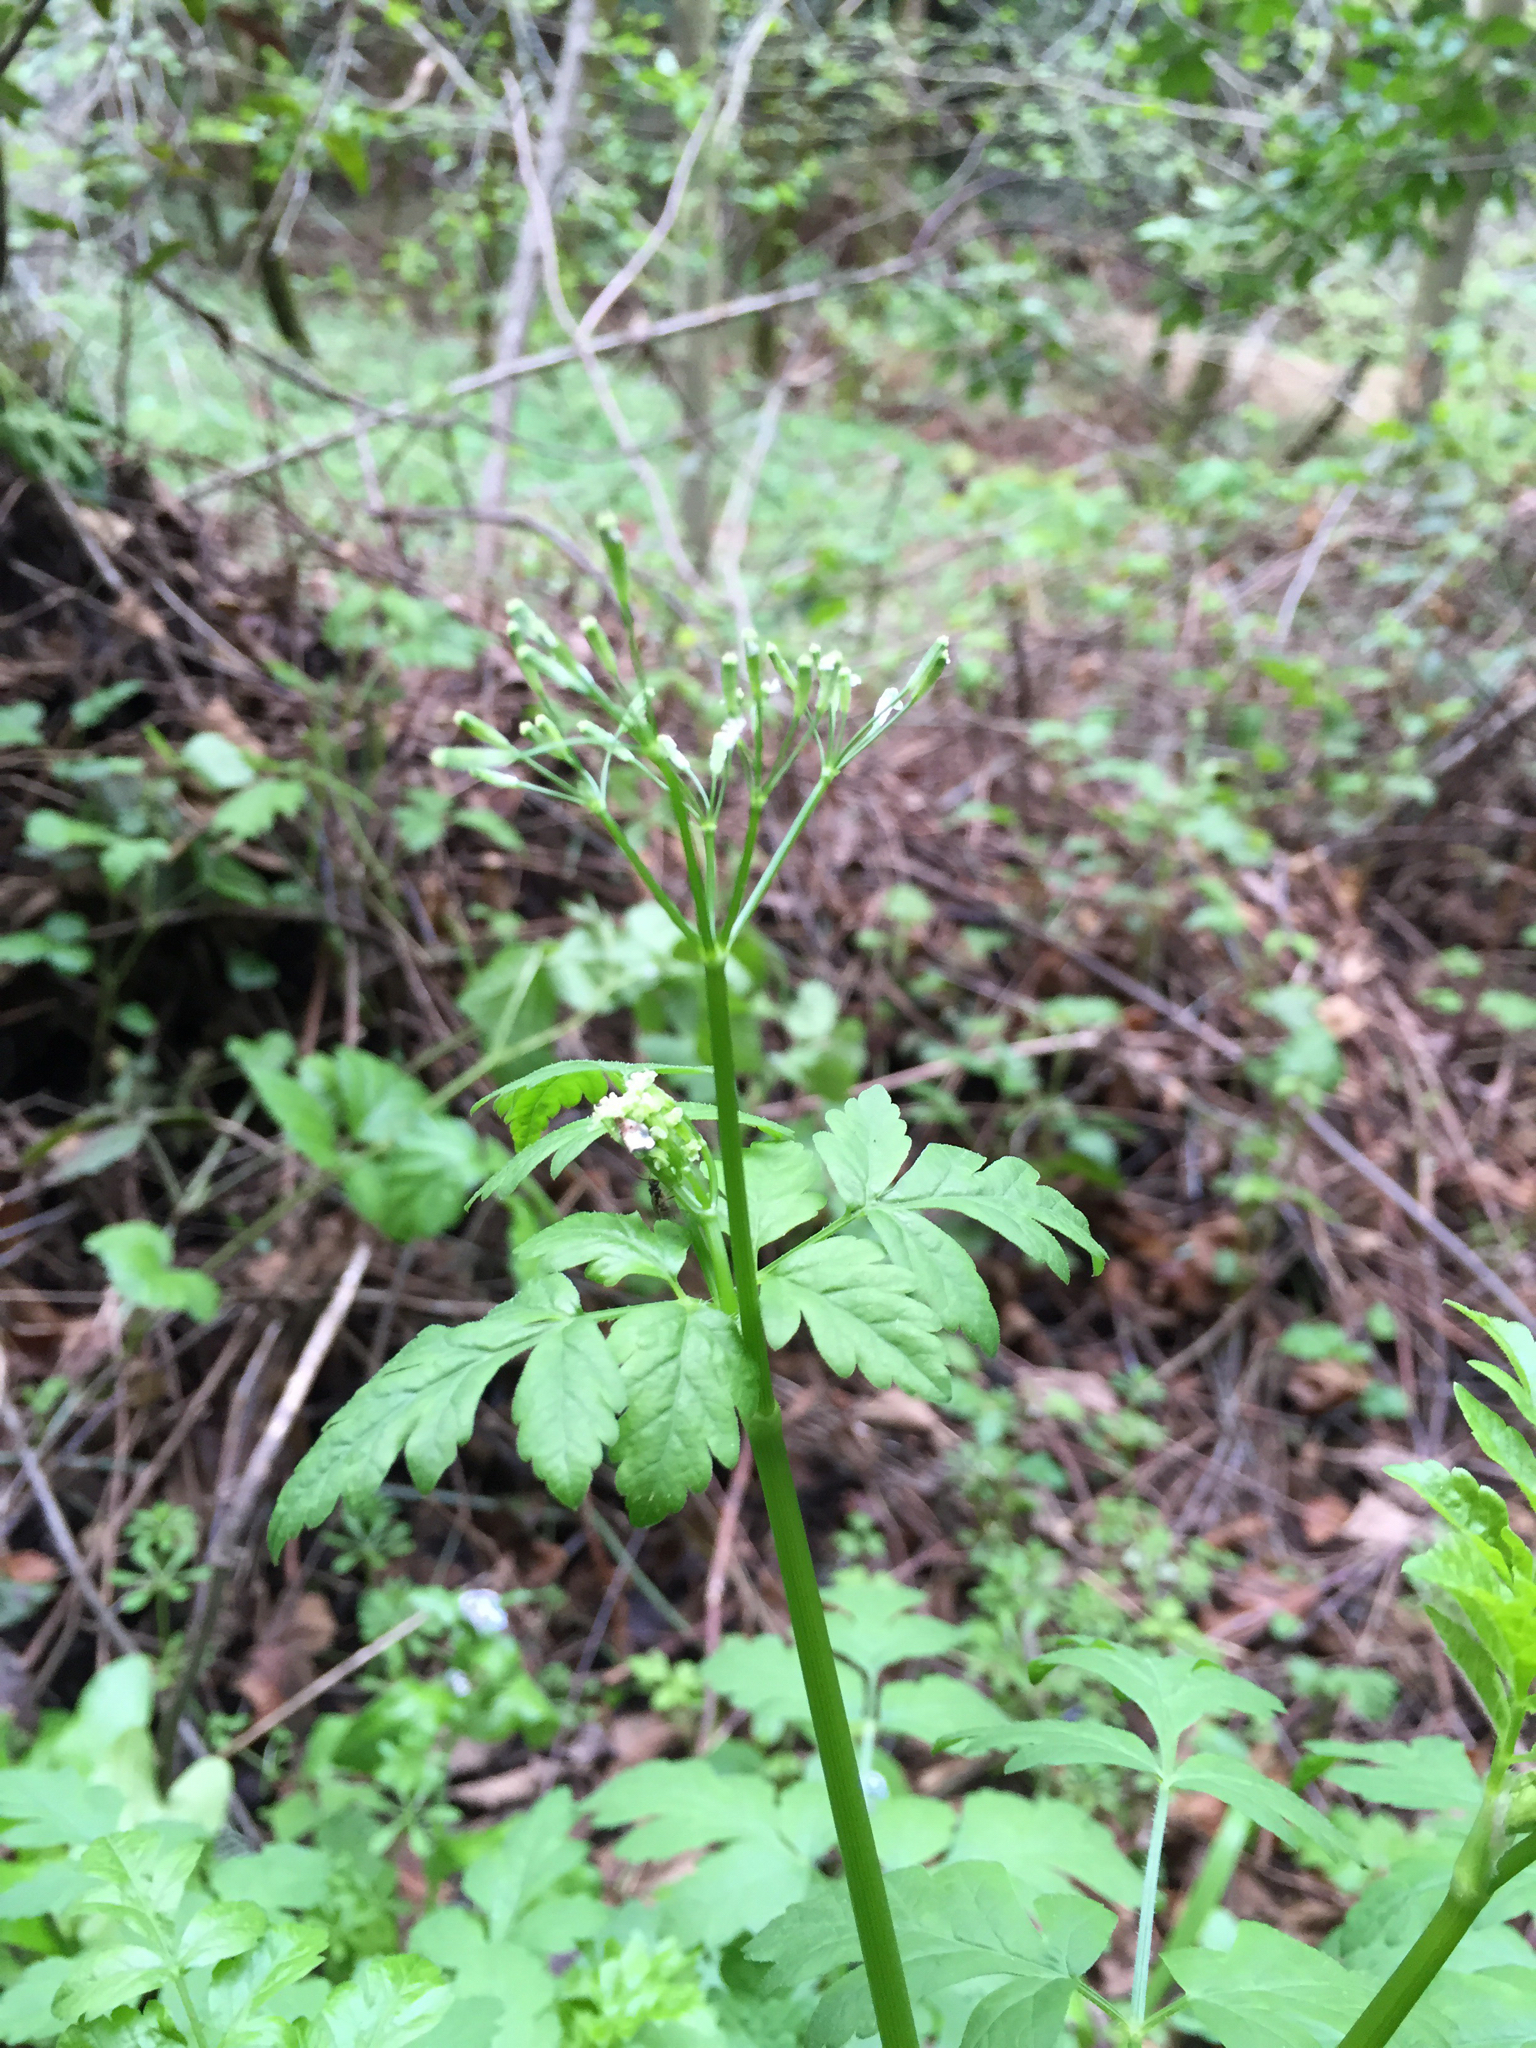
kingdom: Plantae
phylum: Tracheophyta
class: Magnoliopsida
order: Apiales
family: Apiaceae
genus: Osmorhiza
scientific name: Osmorhiza berteroi
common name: Mountain sweet cicely
